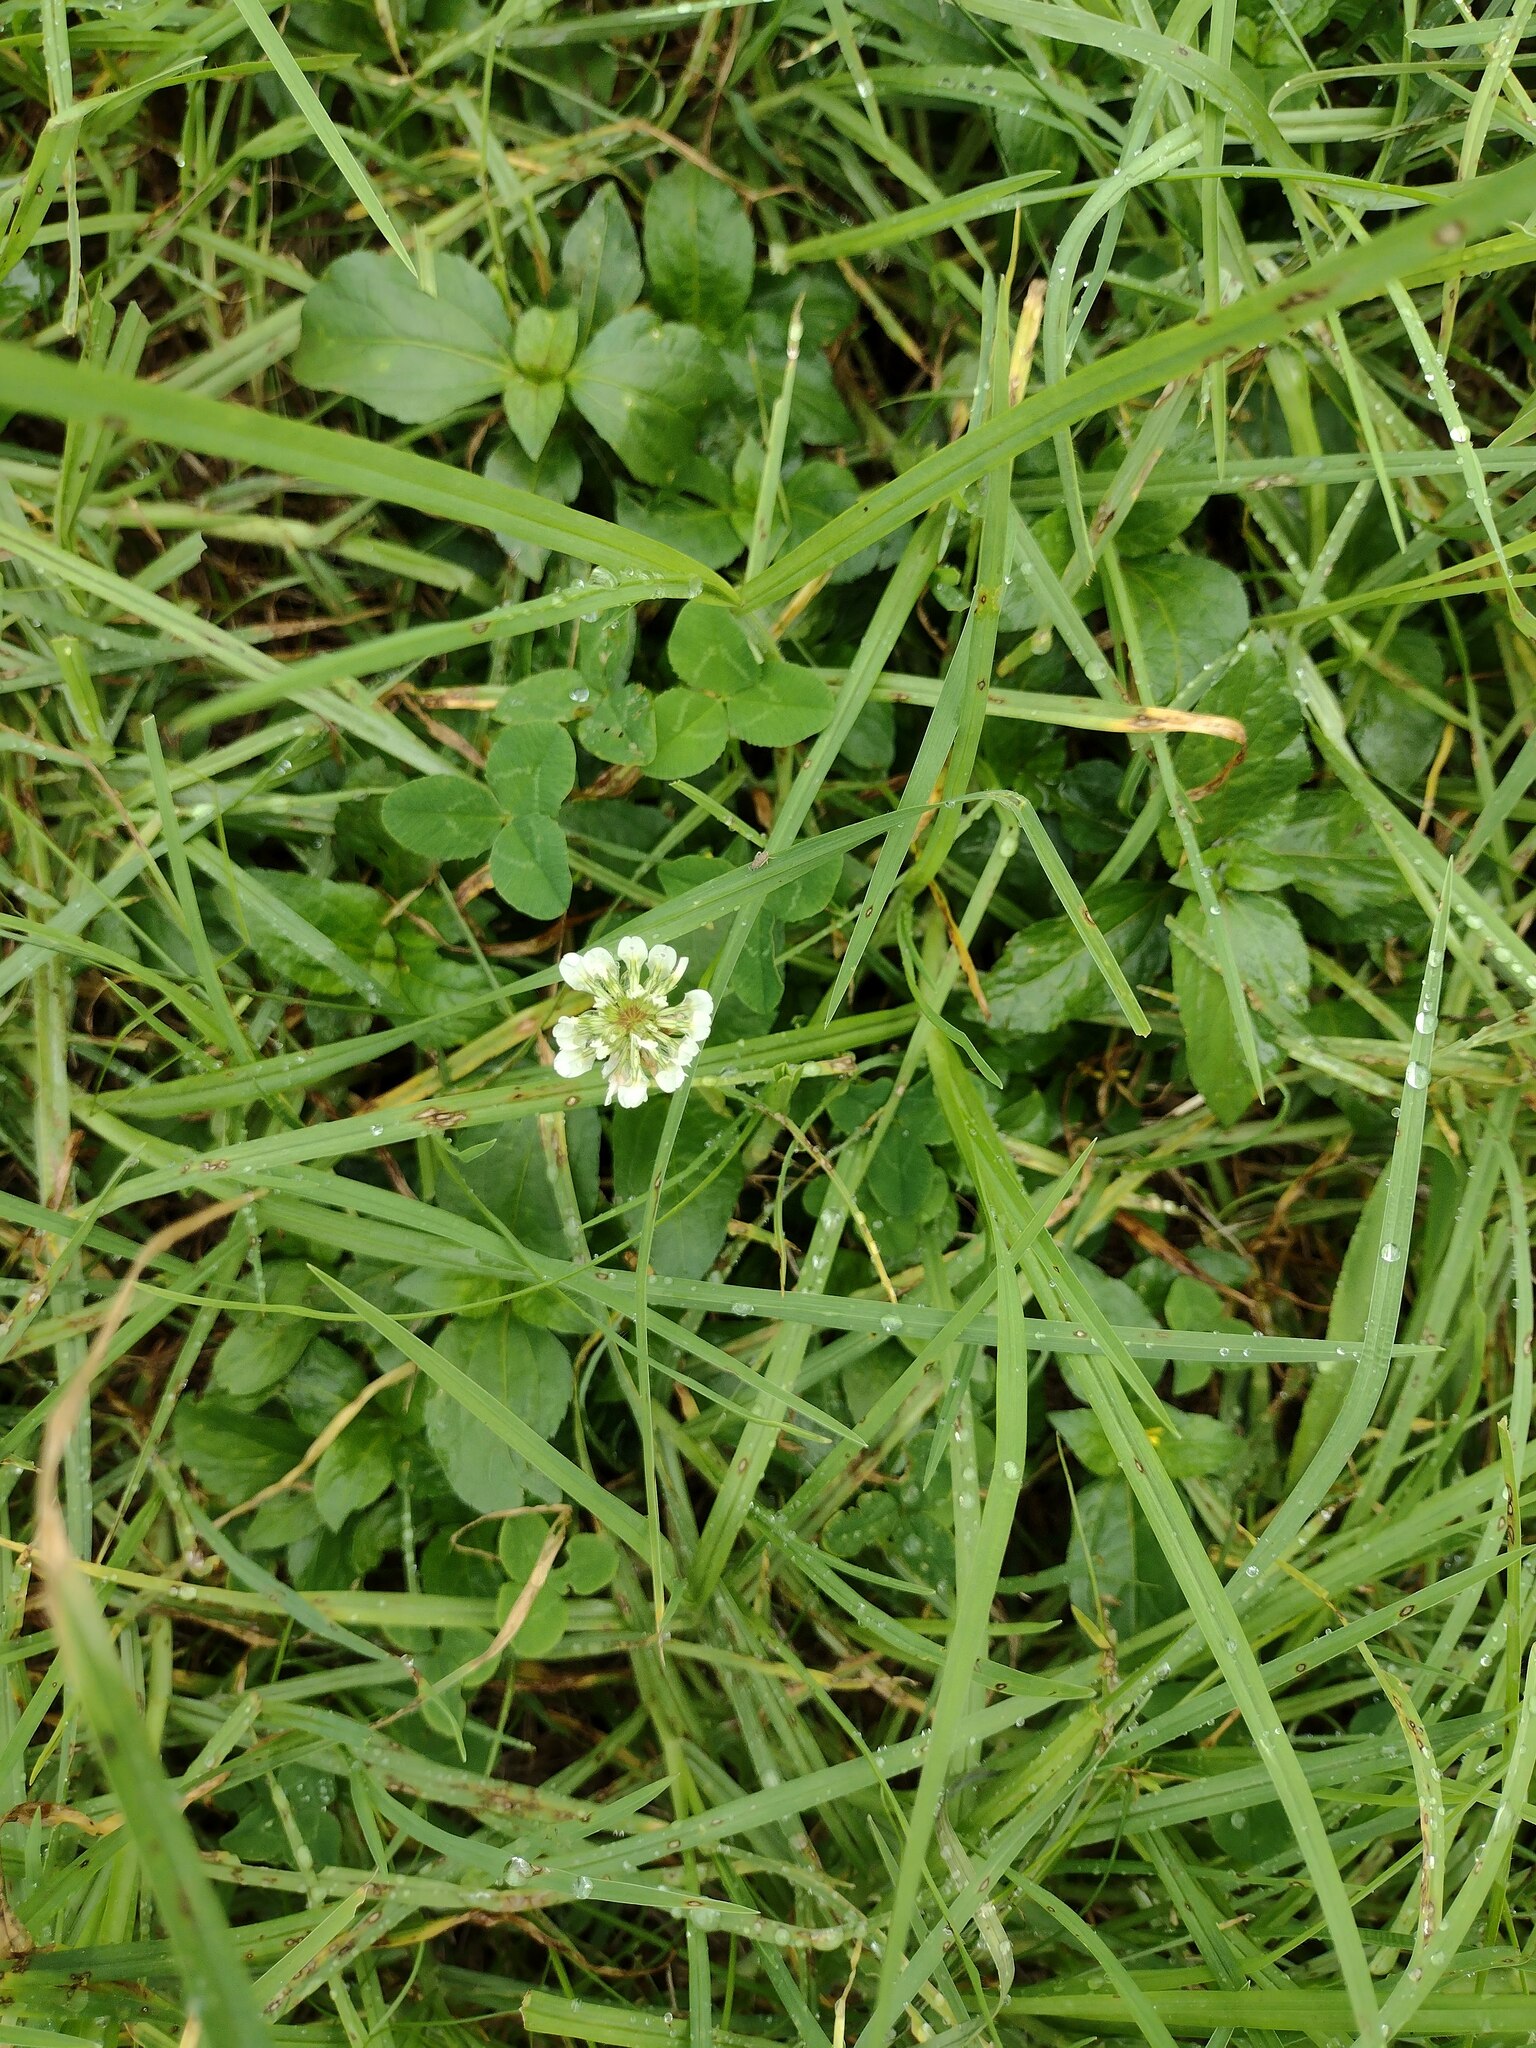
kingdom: Plantae
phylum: Tracheophyta
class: Magnoliopsida
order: Fabales
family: Fabaceae
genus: Trifolium
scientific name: Trifolium repens
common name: White clover
